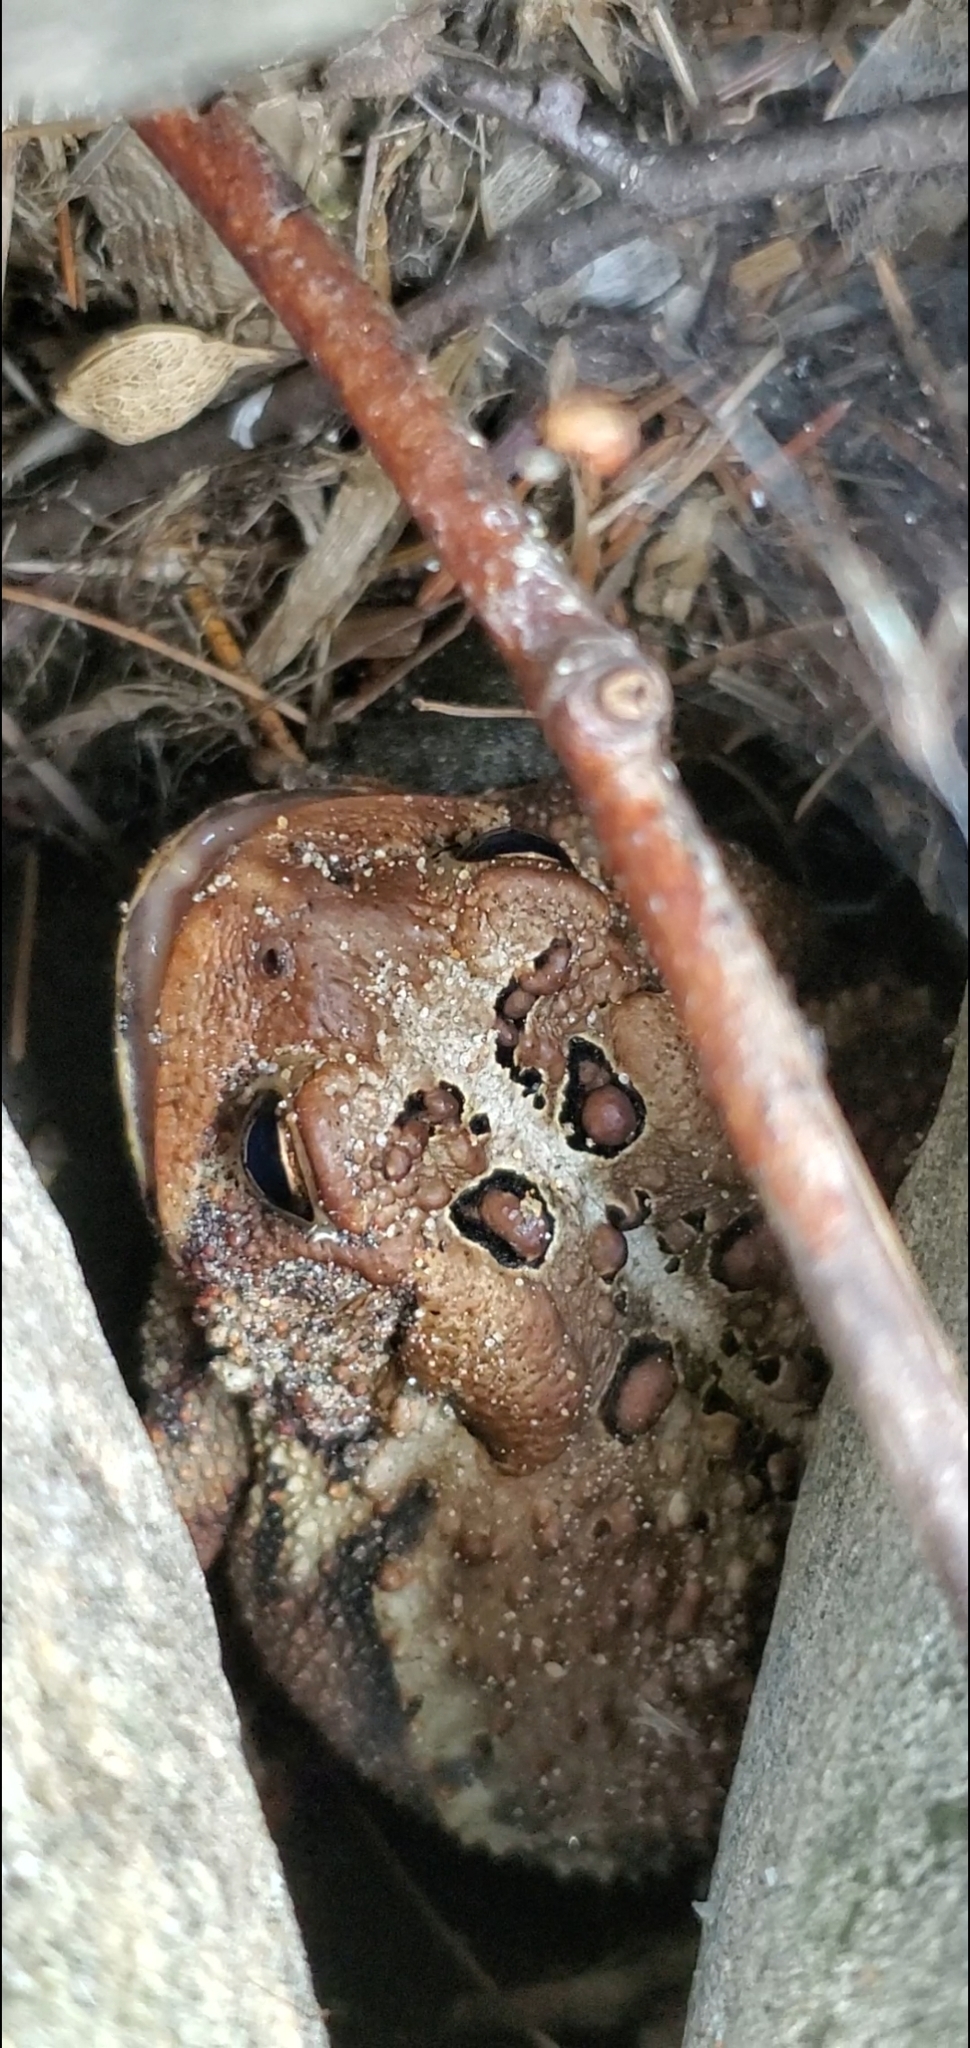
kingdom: Animalia
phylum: Chordata
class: Amphibia
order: Anura
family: Bufonidae
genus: Anaxyrus
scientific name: Anaxyrus americanus
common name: American toad
